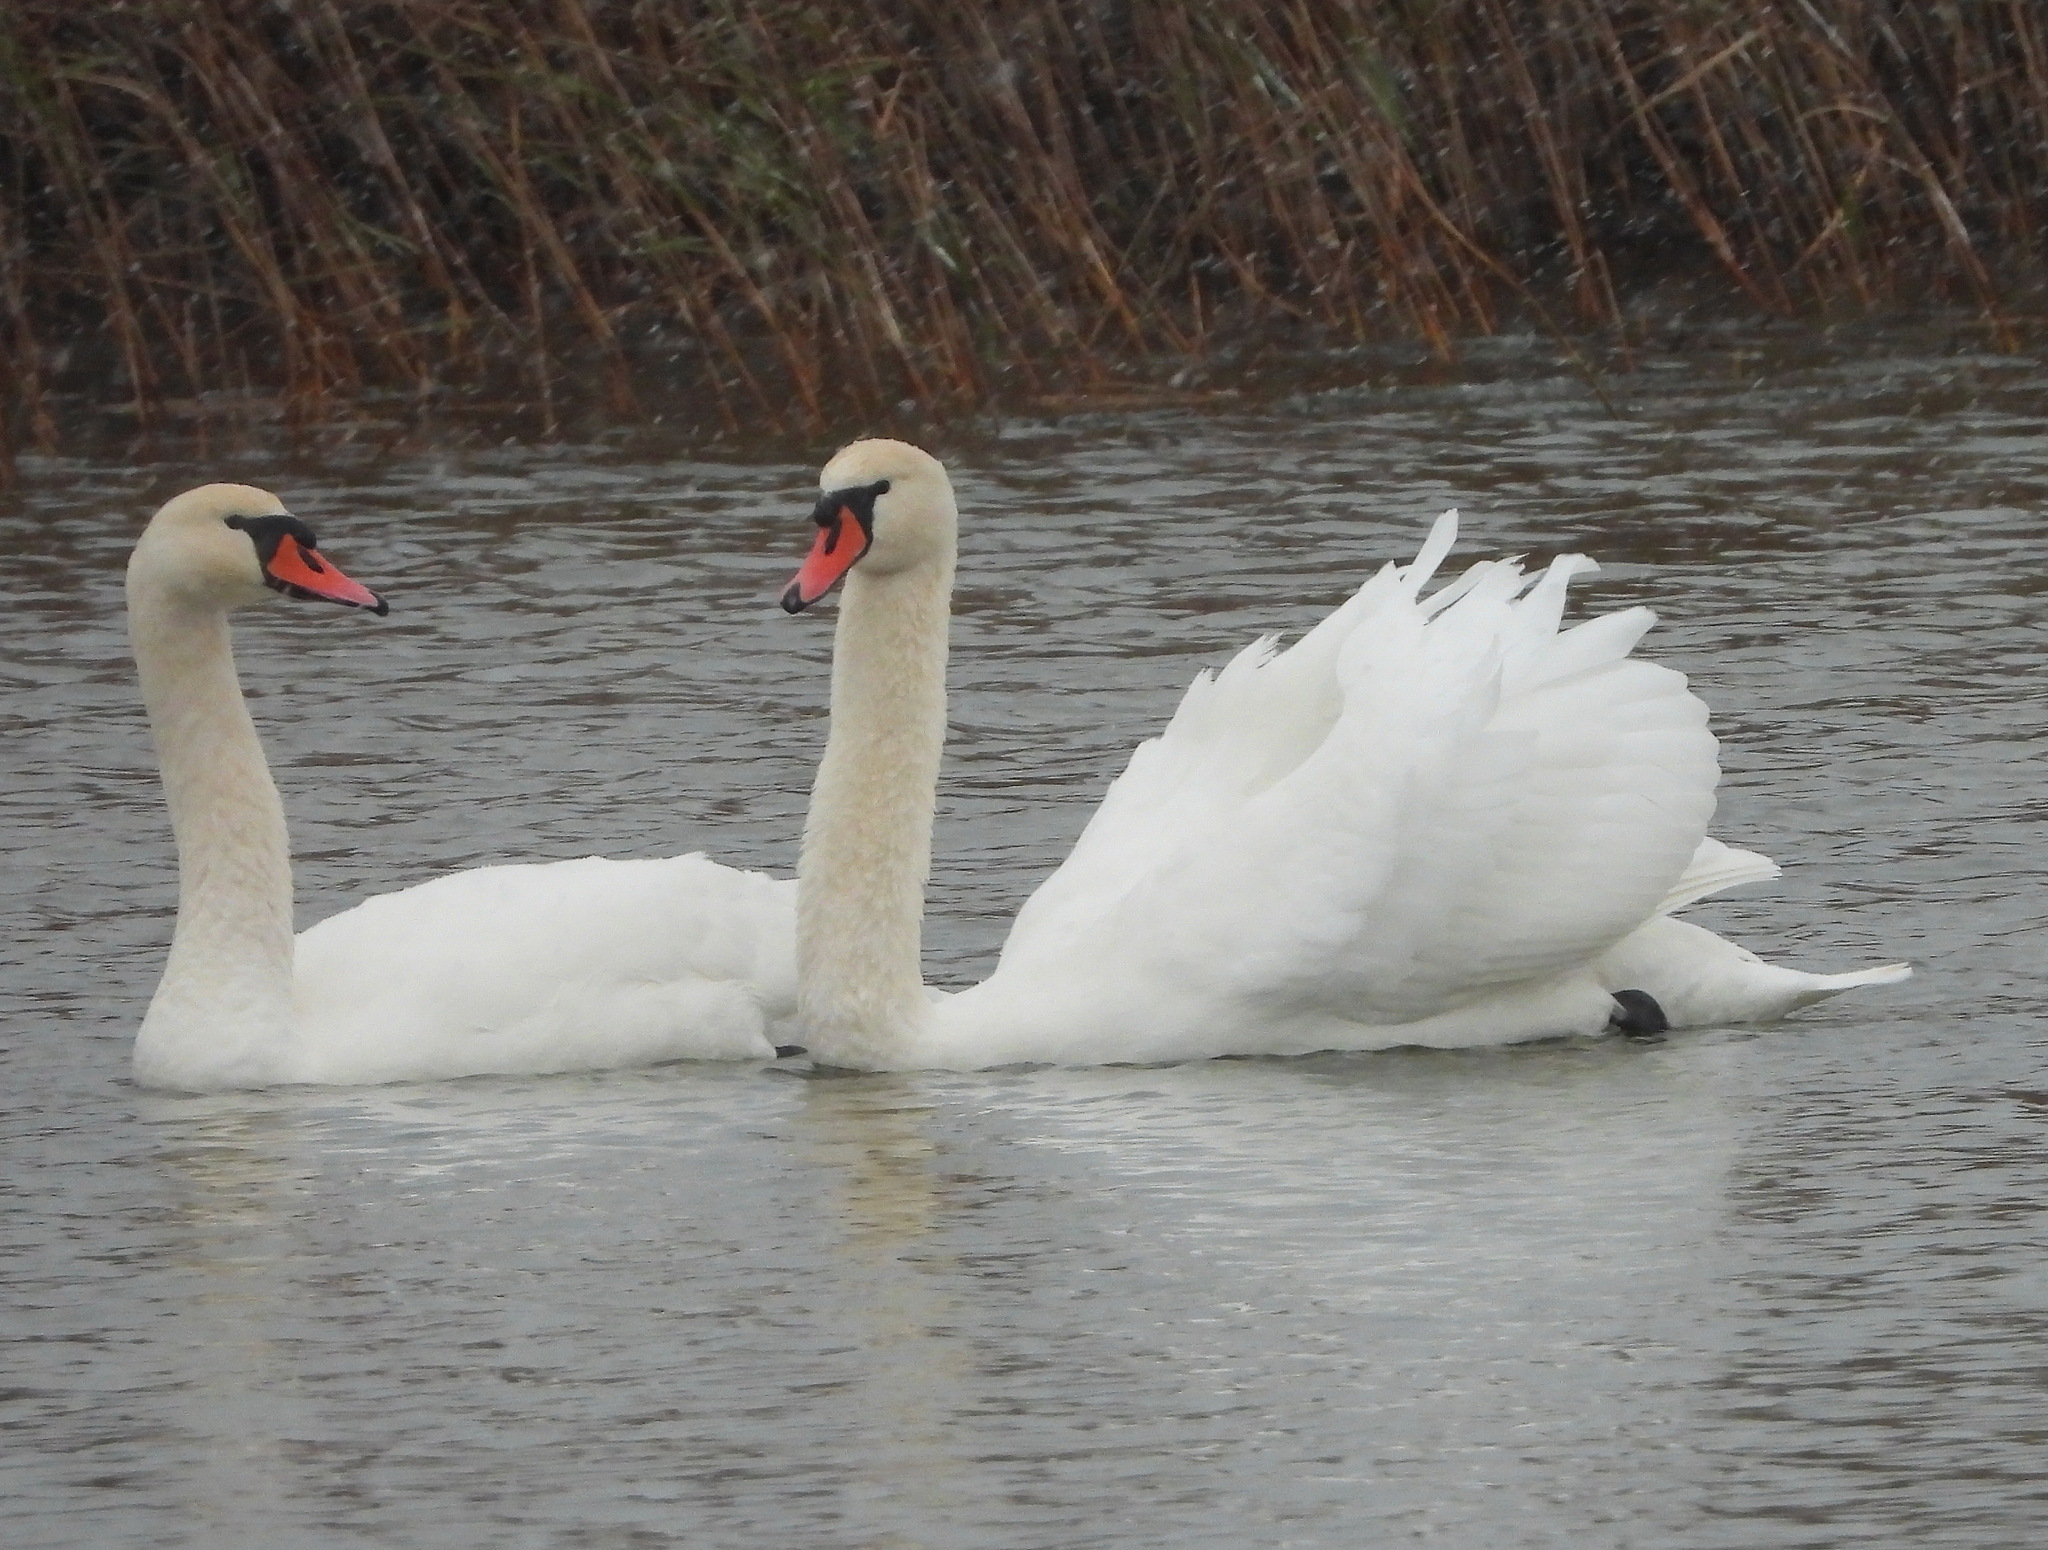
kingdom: Animalia
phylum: Chordata
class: Aves
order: Anseriformes
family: Anatidae
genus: Cygnus
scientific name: Cygnus olor
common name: Mute swan
